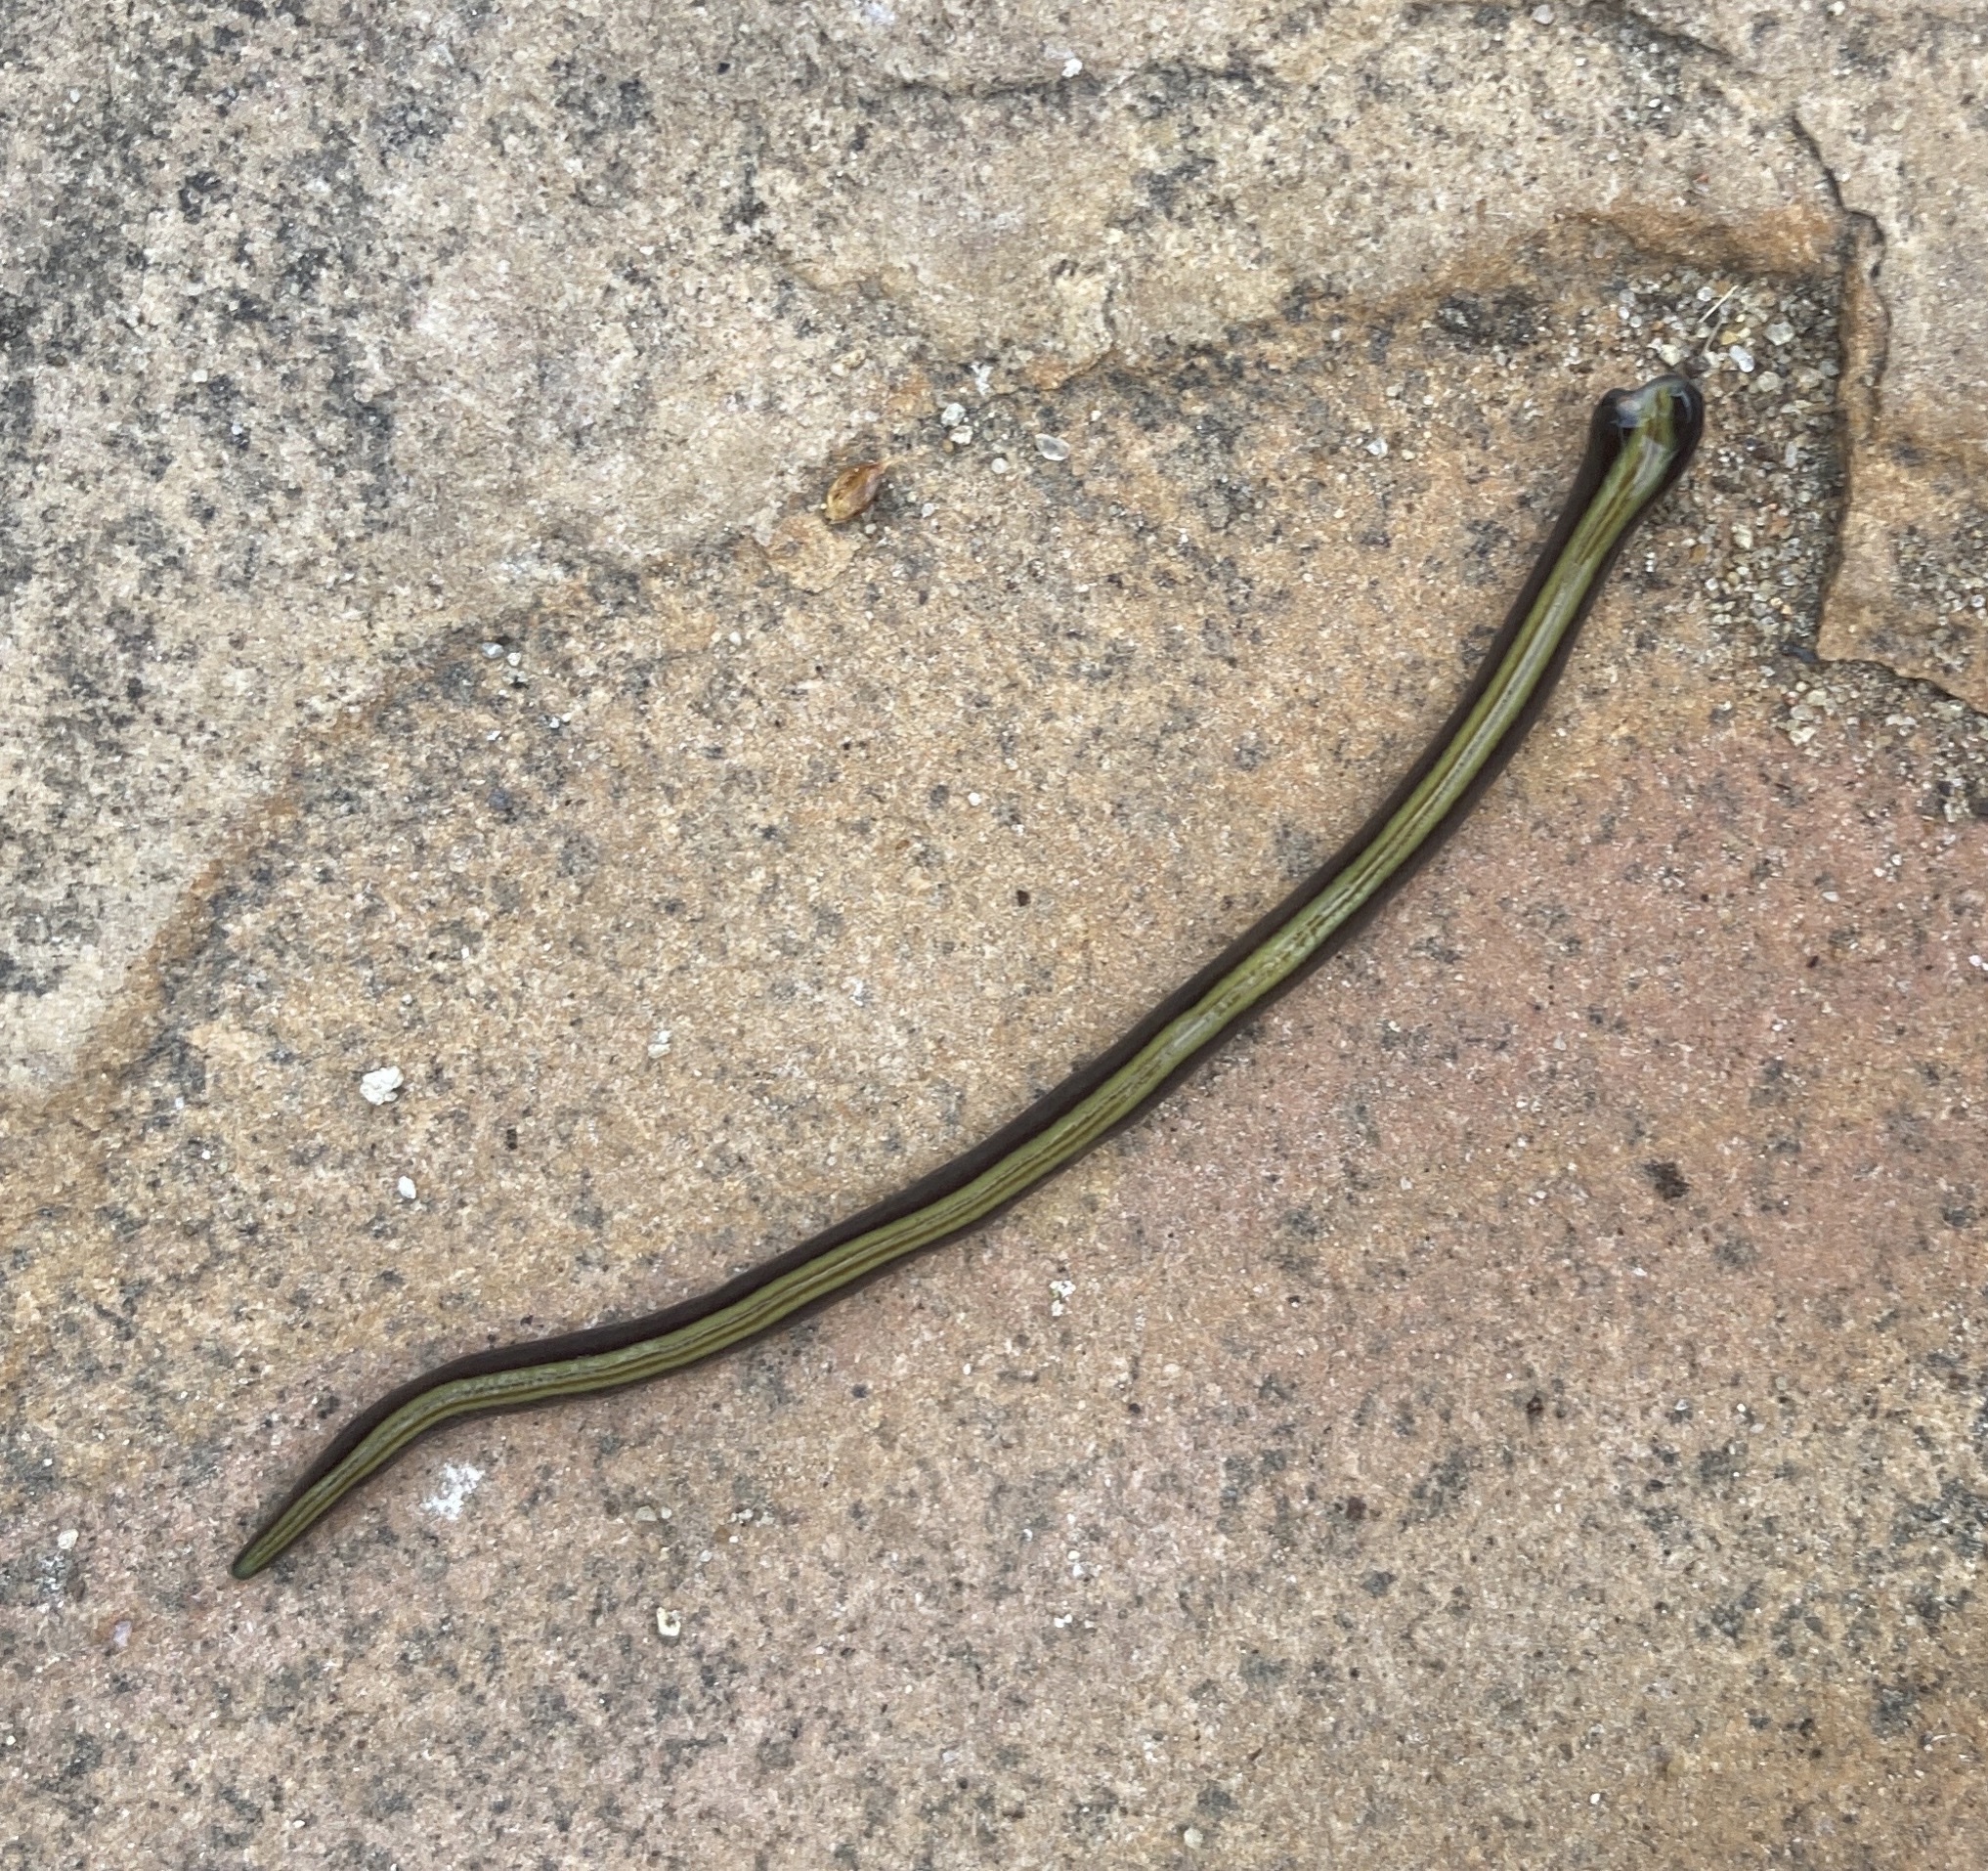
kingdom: Animalia
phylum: Platyhelminthes
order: Tricladida
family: Geoplanidae
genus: Caenoplana
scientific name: Caenoplana variegata
